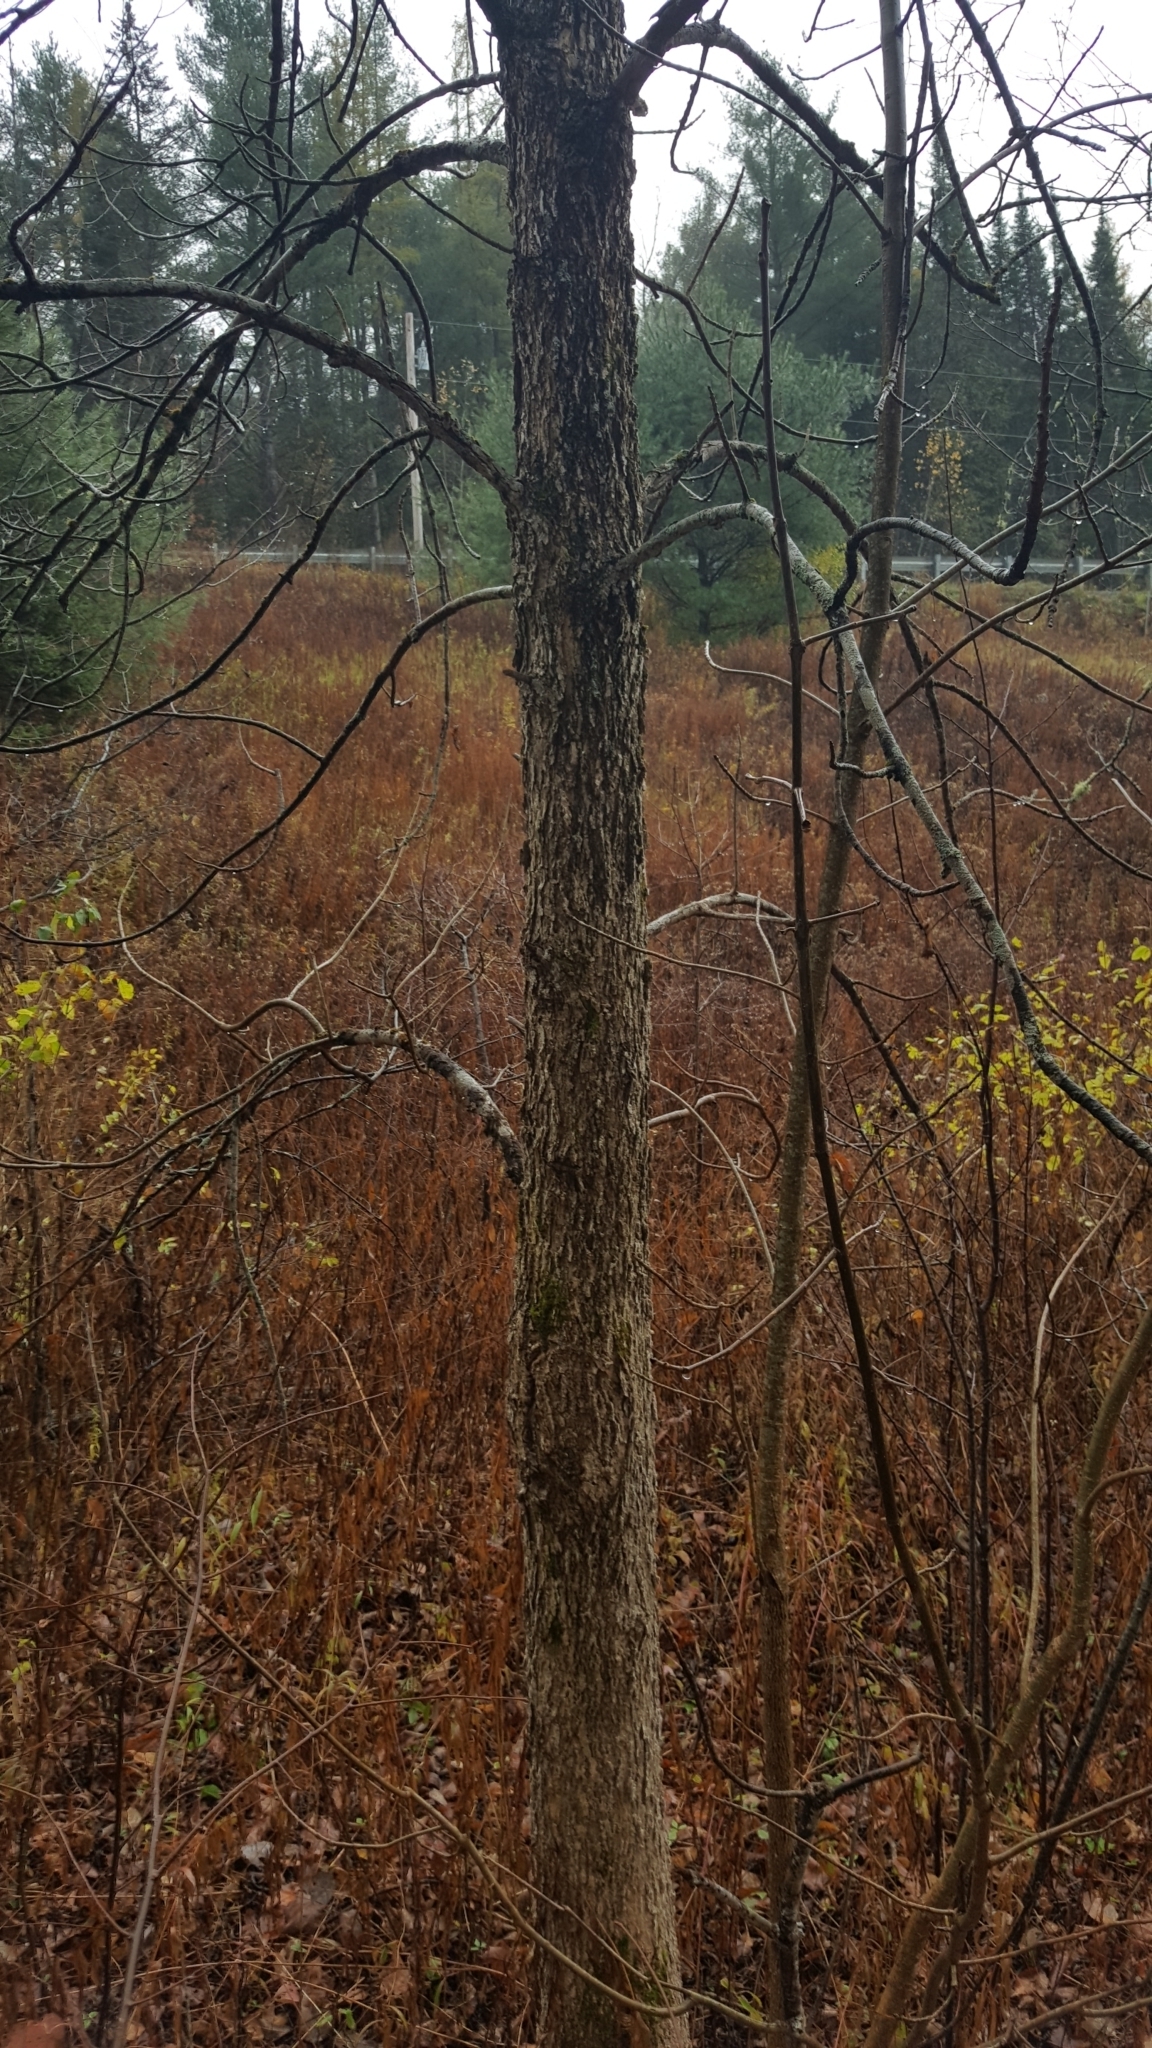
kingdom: Plantae
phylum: Tracheophyta
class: Magnoliopsida
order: Lamiales
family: Oleaceae
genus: Fraxinus
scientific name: Fraxinus nigra
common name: Black ash
